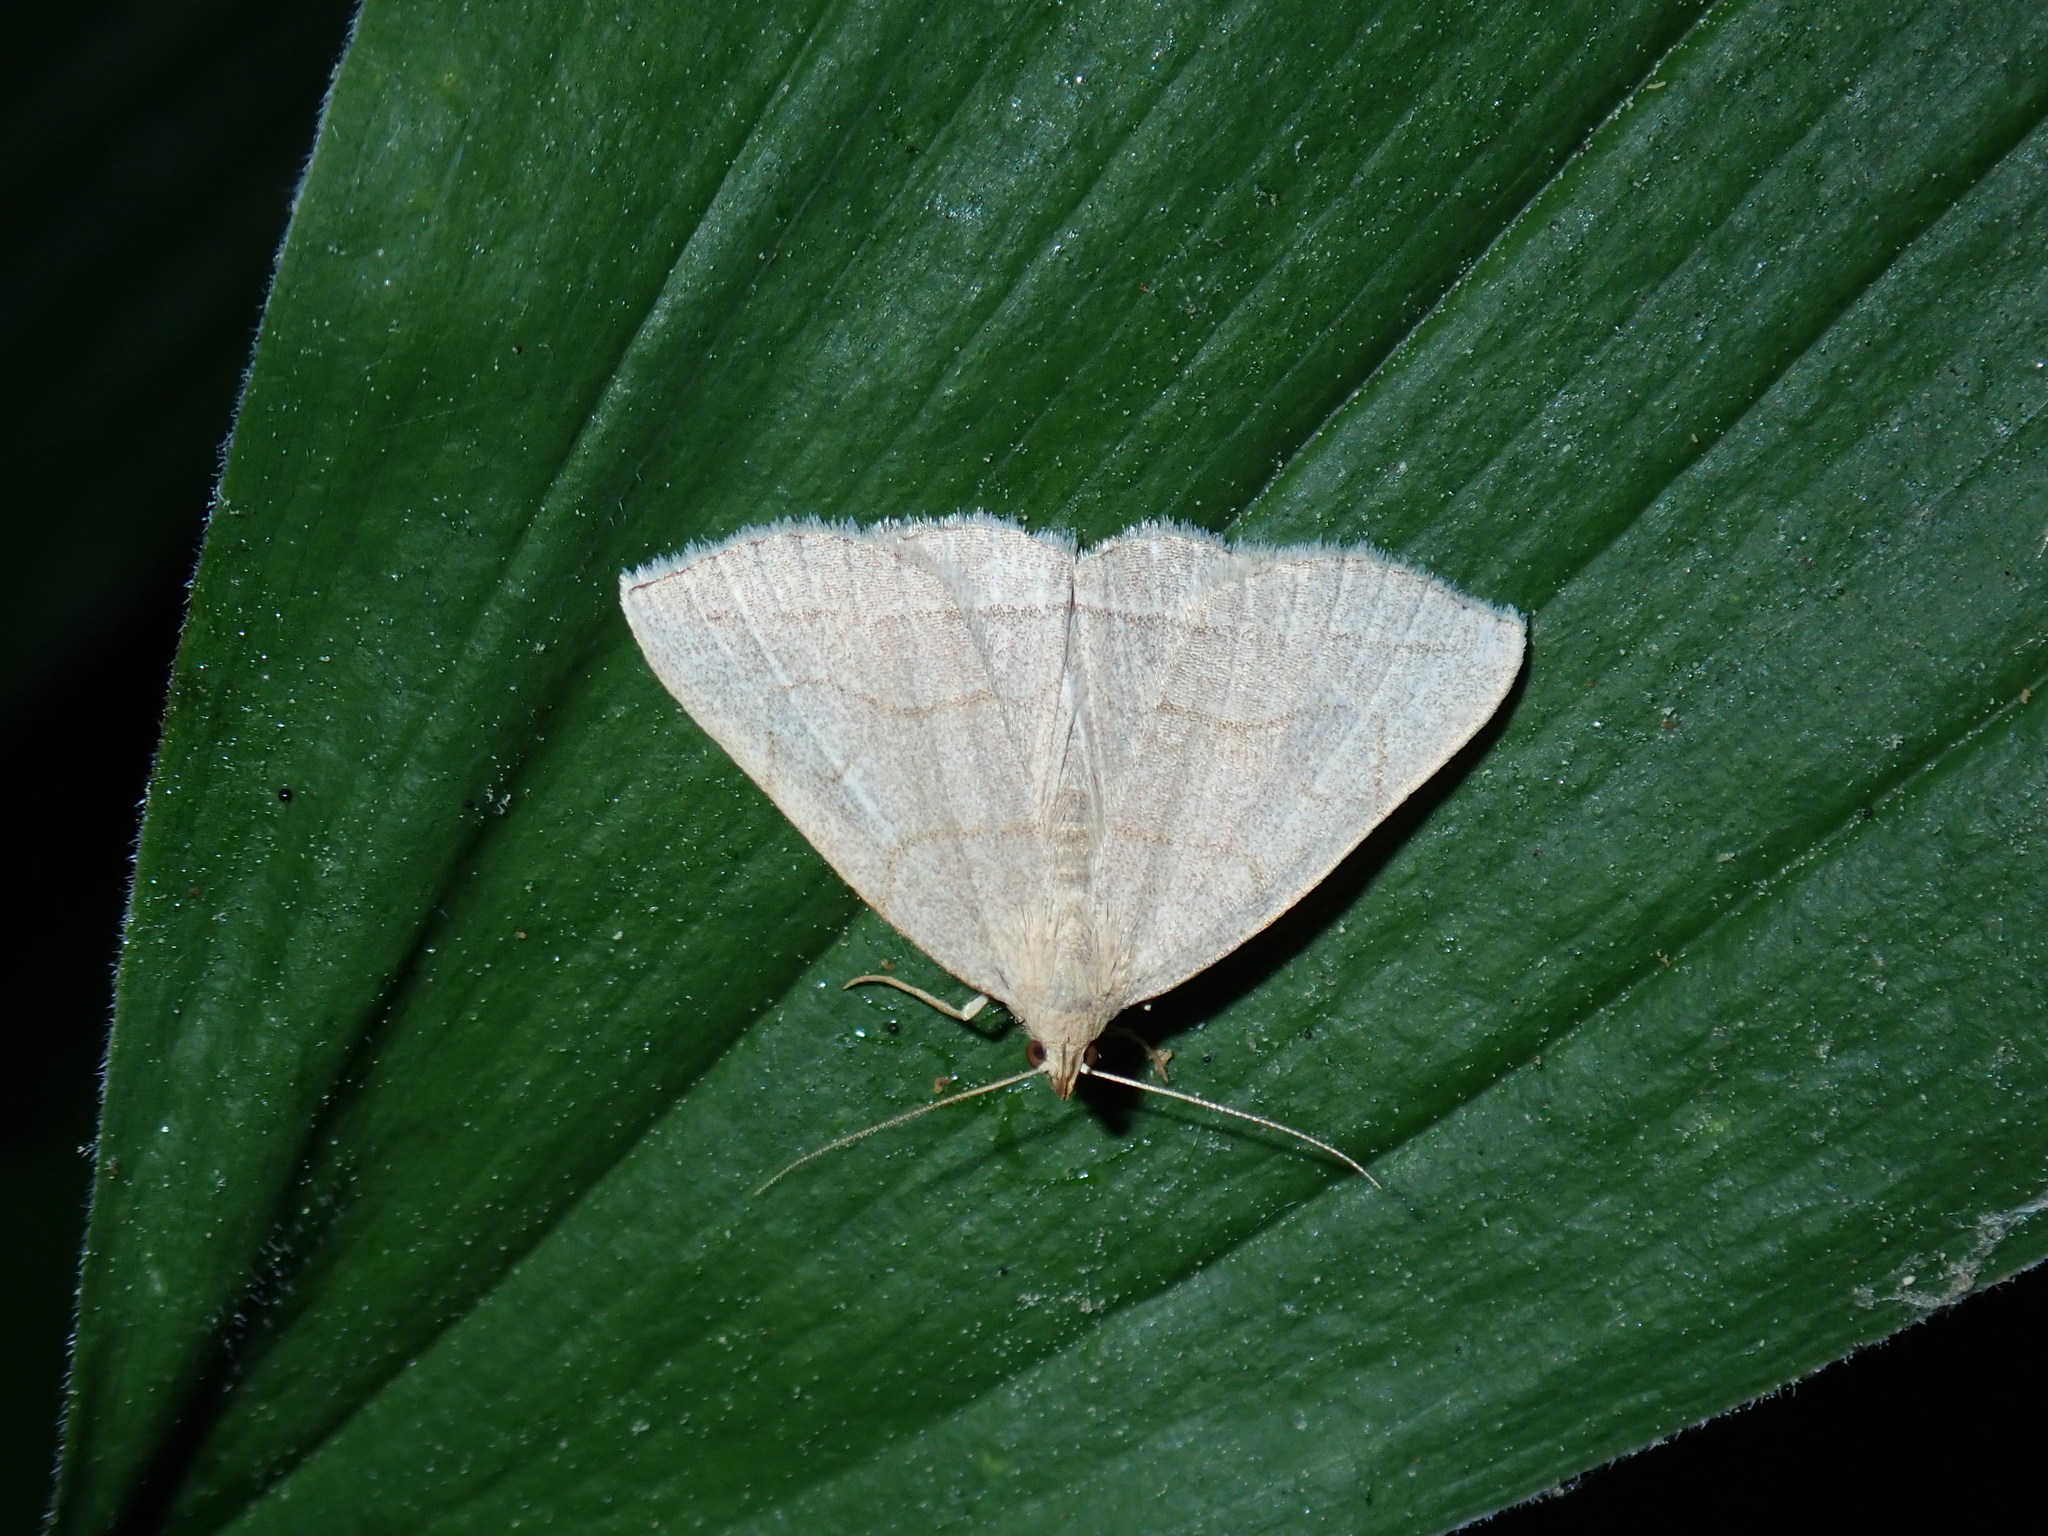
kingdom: Animalia
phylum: Arthropoda
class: Insecta
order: Lepidoptera
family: Erebidae
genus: Zanclognatha
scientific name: Zanclognatha pedipilalis
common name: Grayish fan-foot
